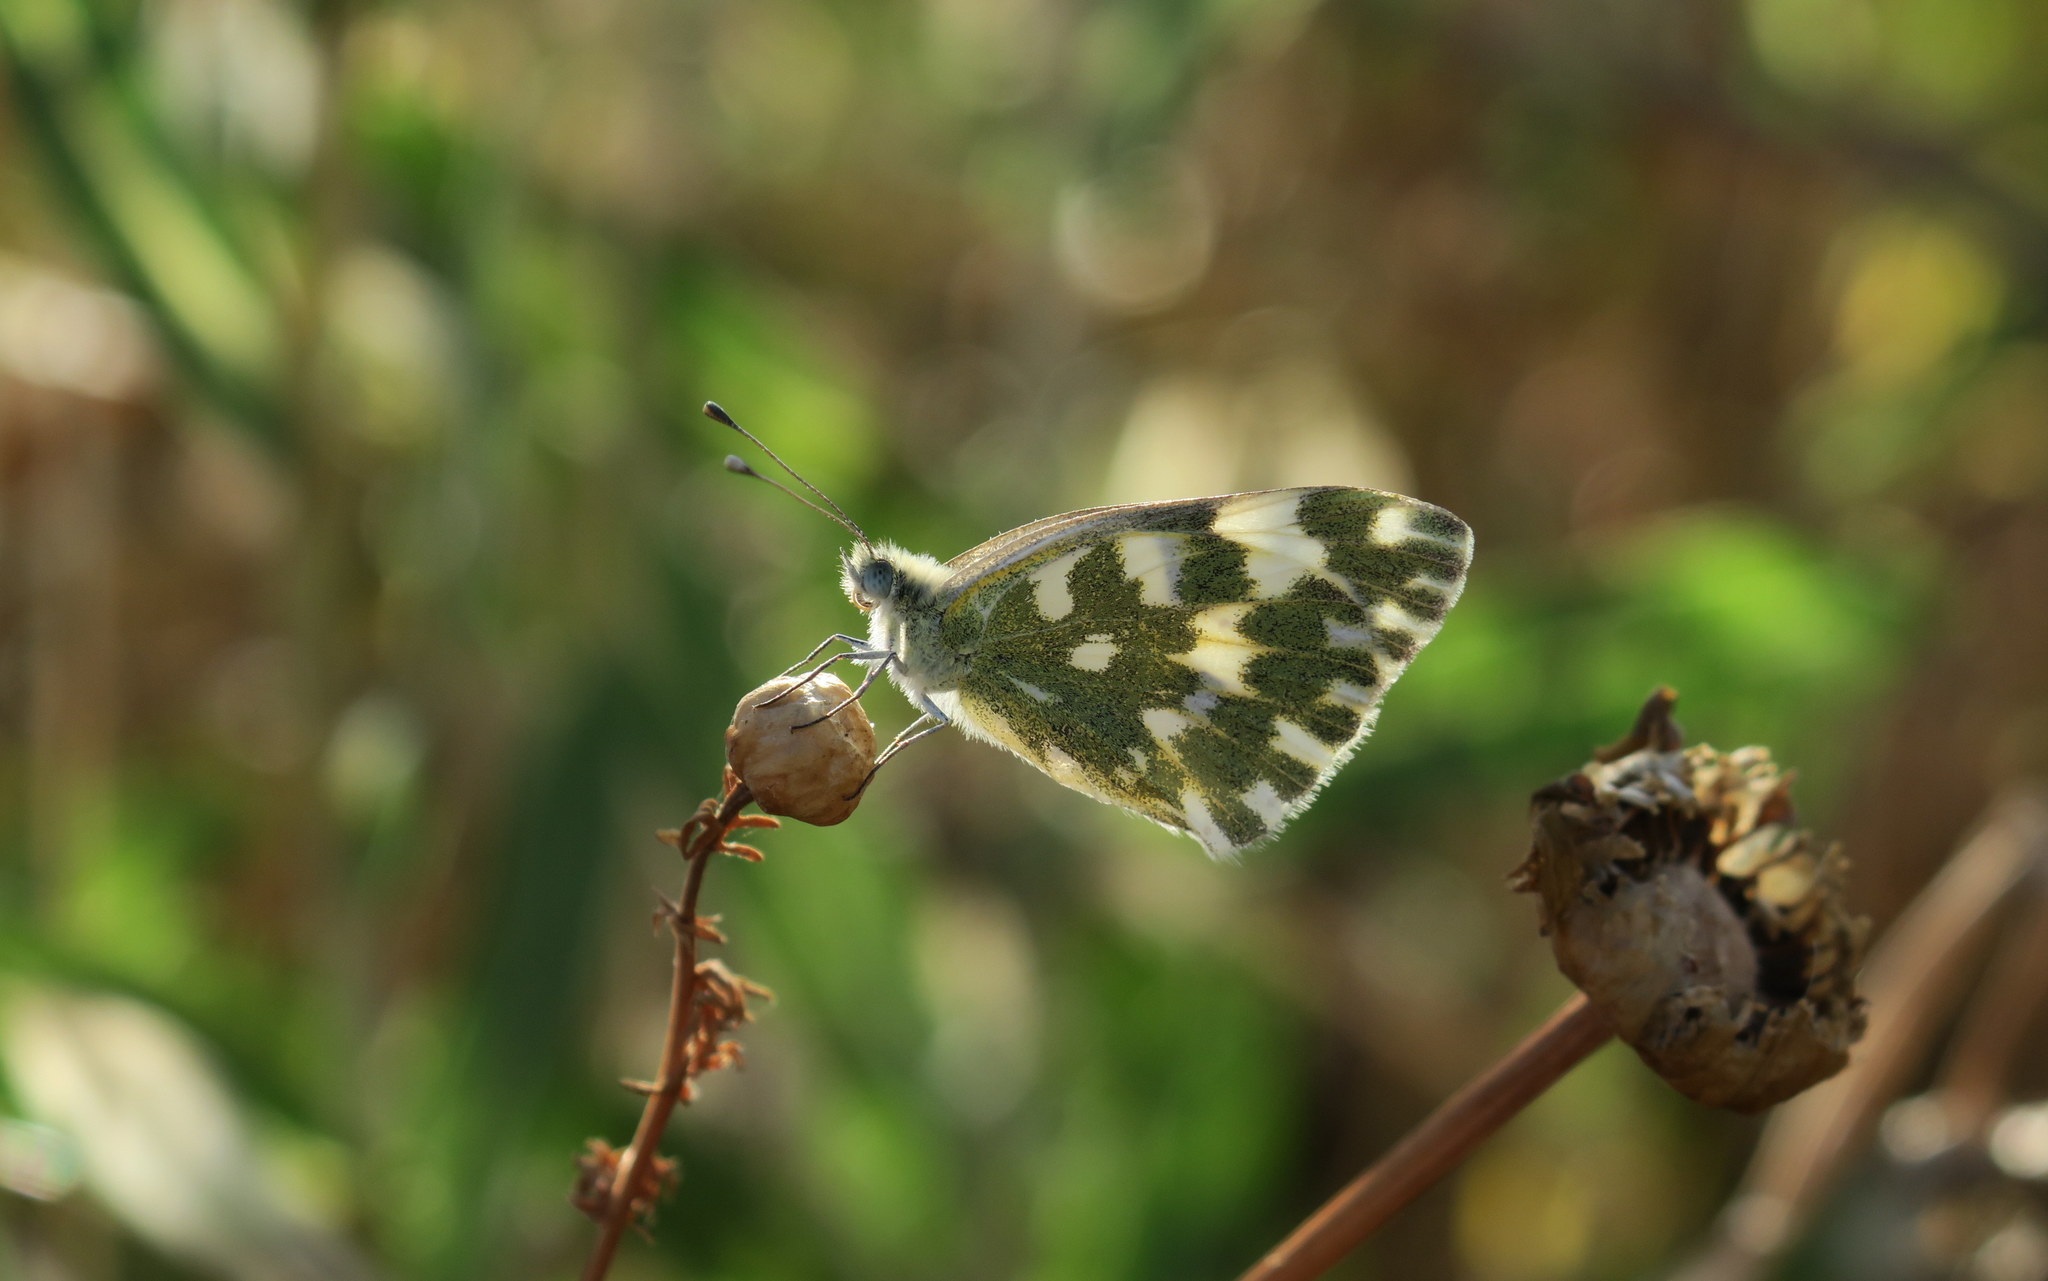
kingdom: Animalia
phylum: Arthropoda
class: Insecta
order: Lepidoptera
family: Pieridae
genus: Pontia
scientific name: Pontia edusa
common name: Eastern bath white
